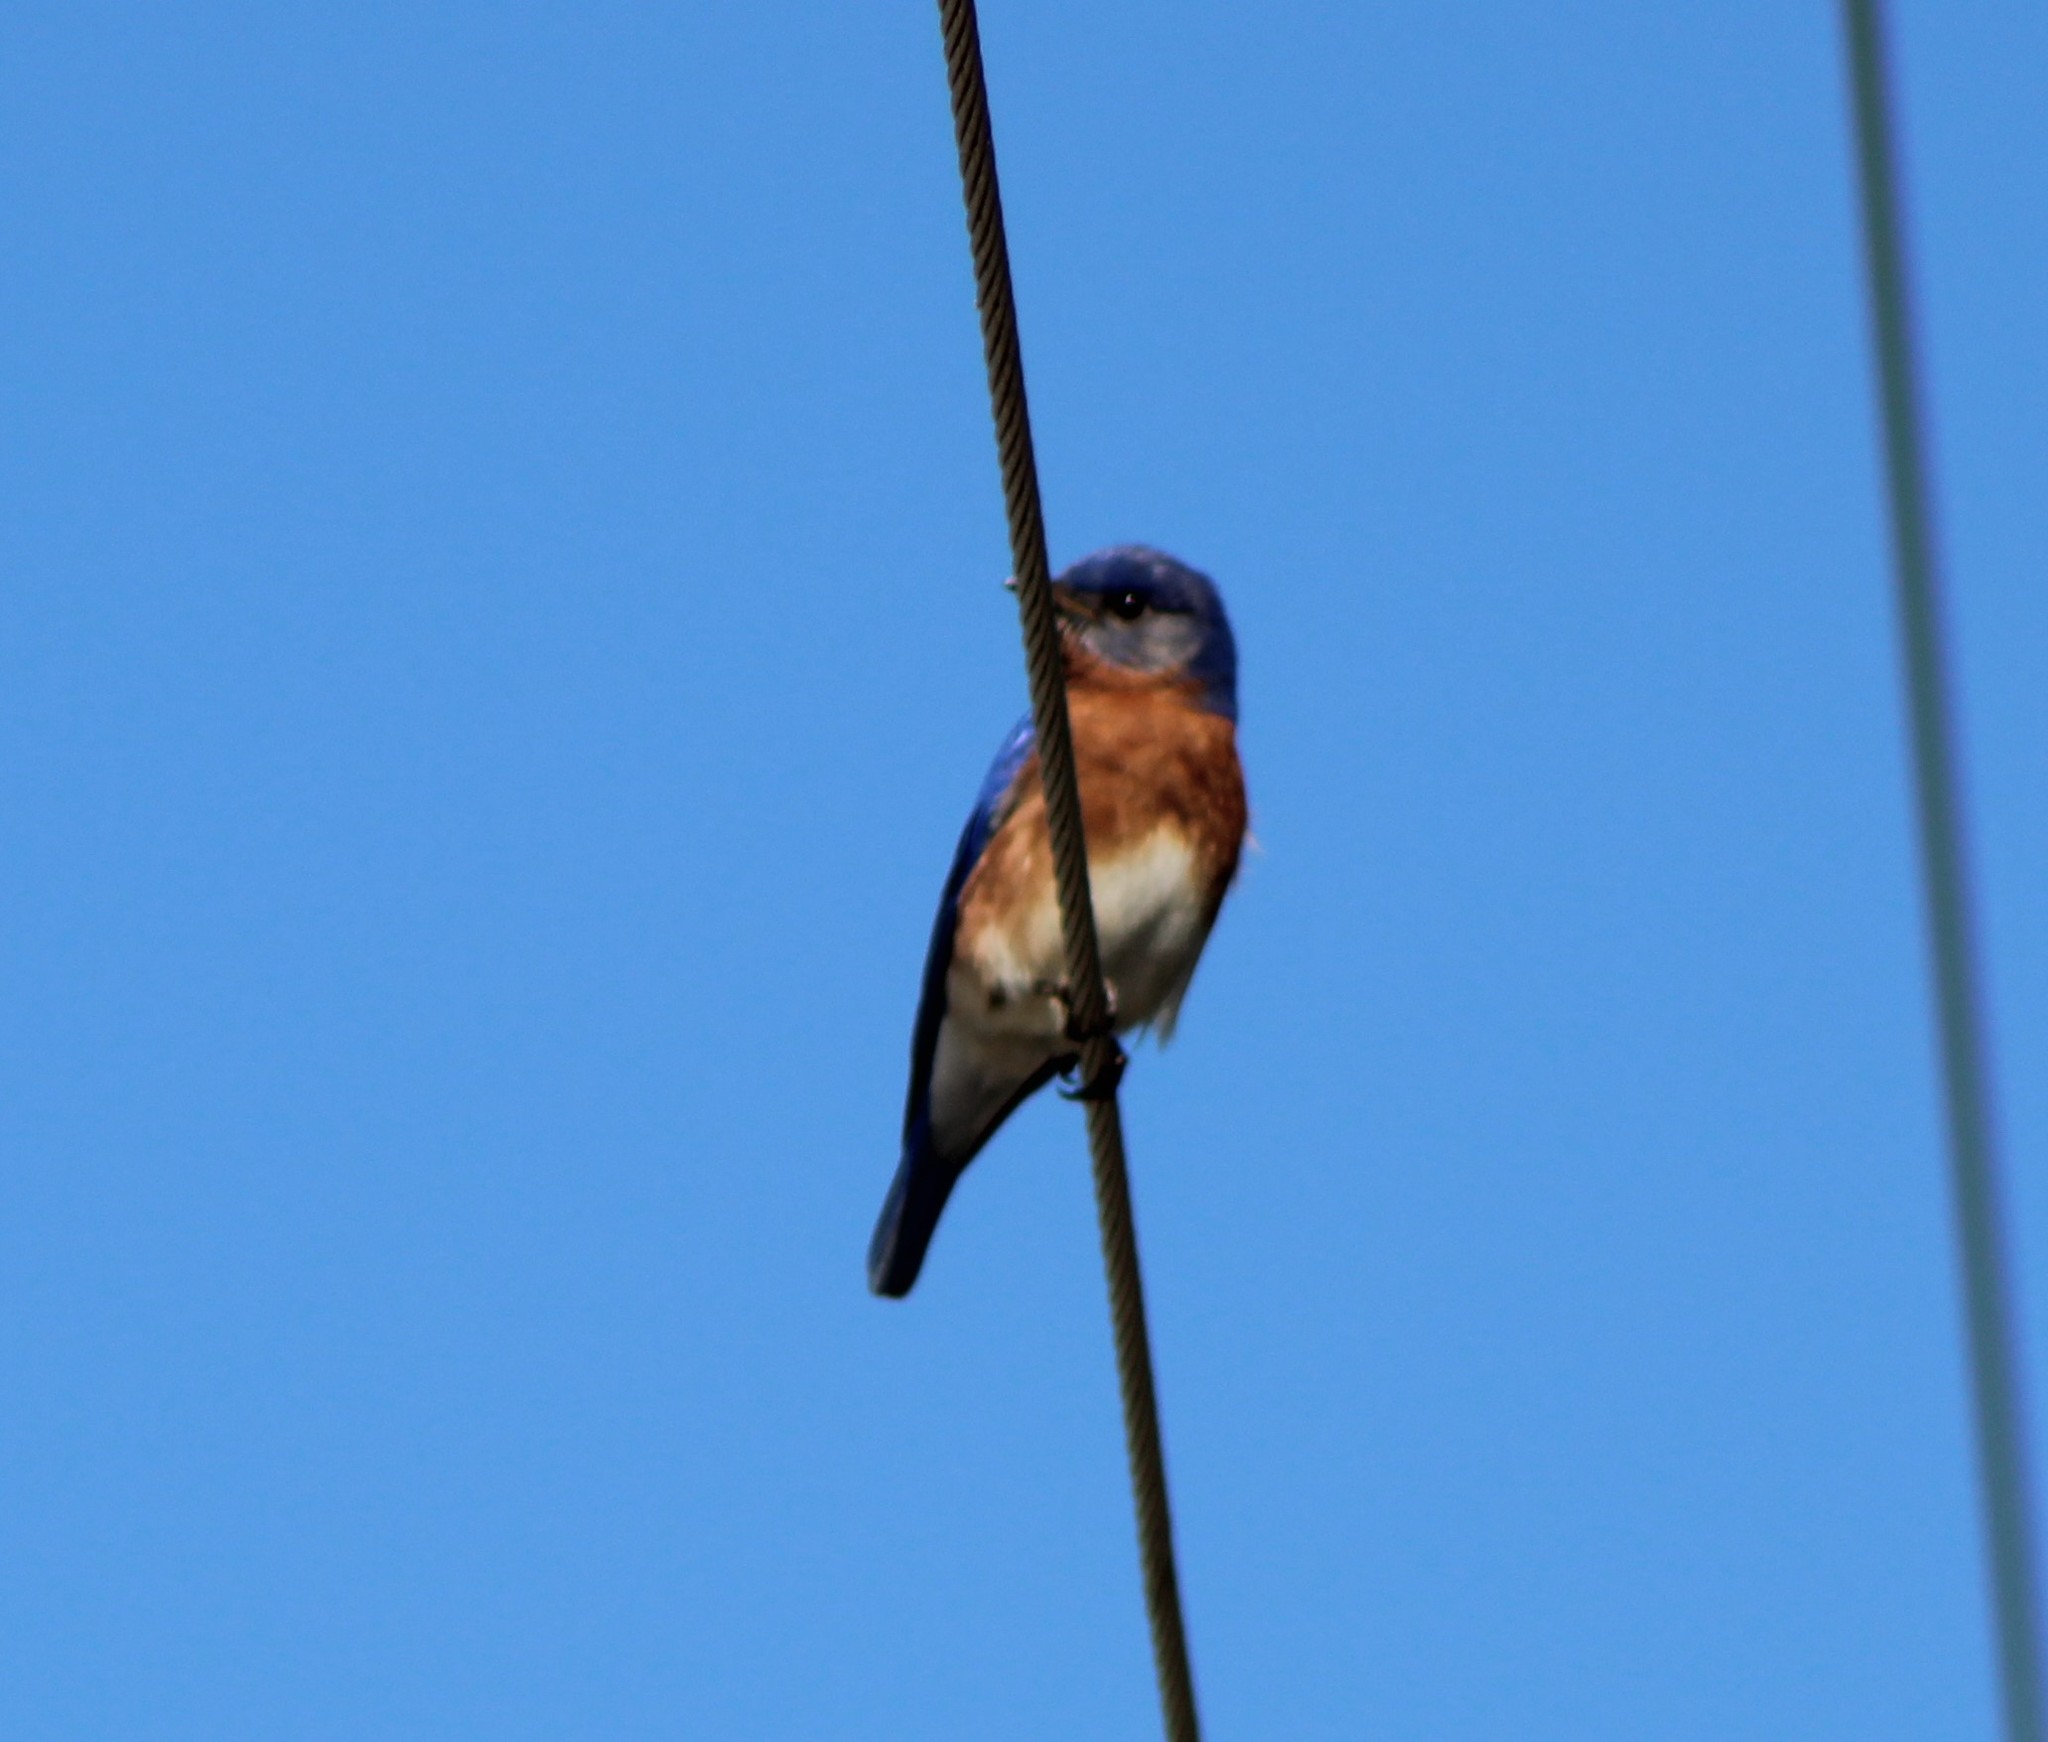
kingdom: Animalia
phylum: Chordata
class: Aves
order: Passeriformes
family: Turdidae
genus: Sialia
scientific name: Sialia sialis
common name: Eastern bluebird
